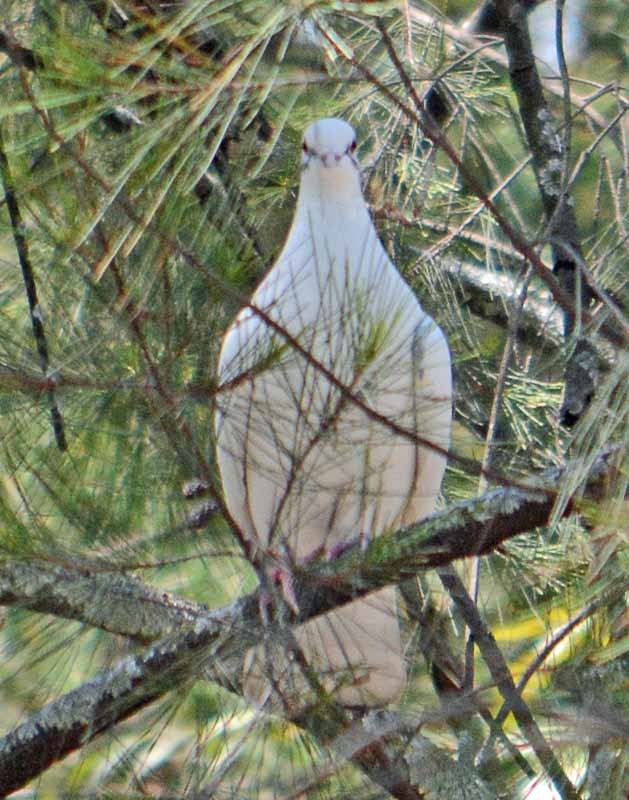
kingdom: Animalia
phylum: Chordata
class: Aves
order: Columbiformes
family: Columbidae
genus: Columba
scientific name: Columba livia
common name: Rock pigeon
